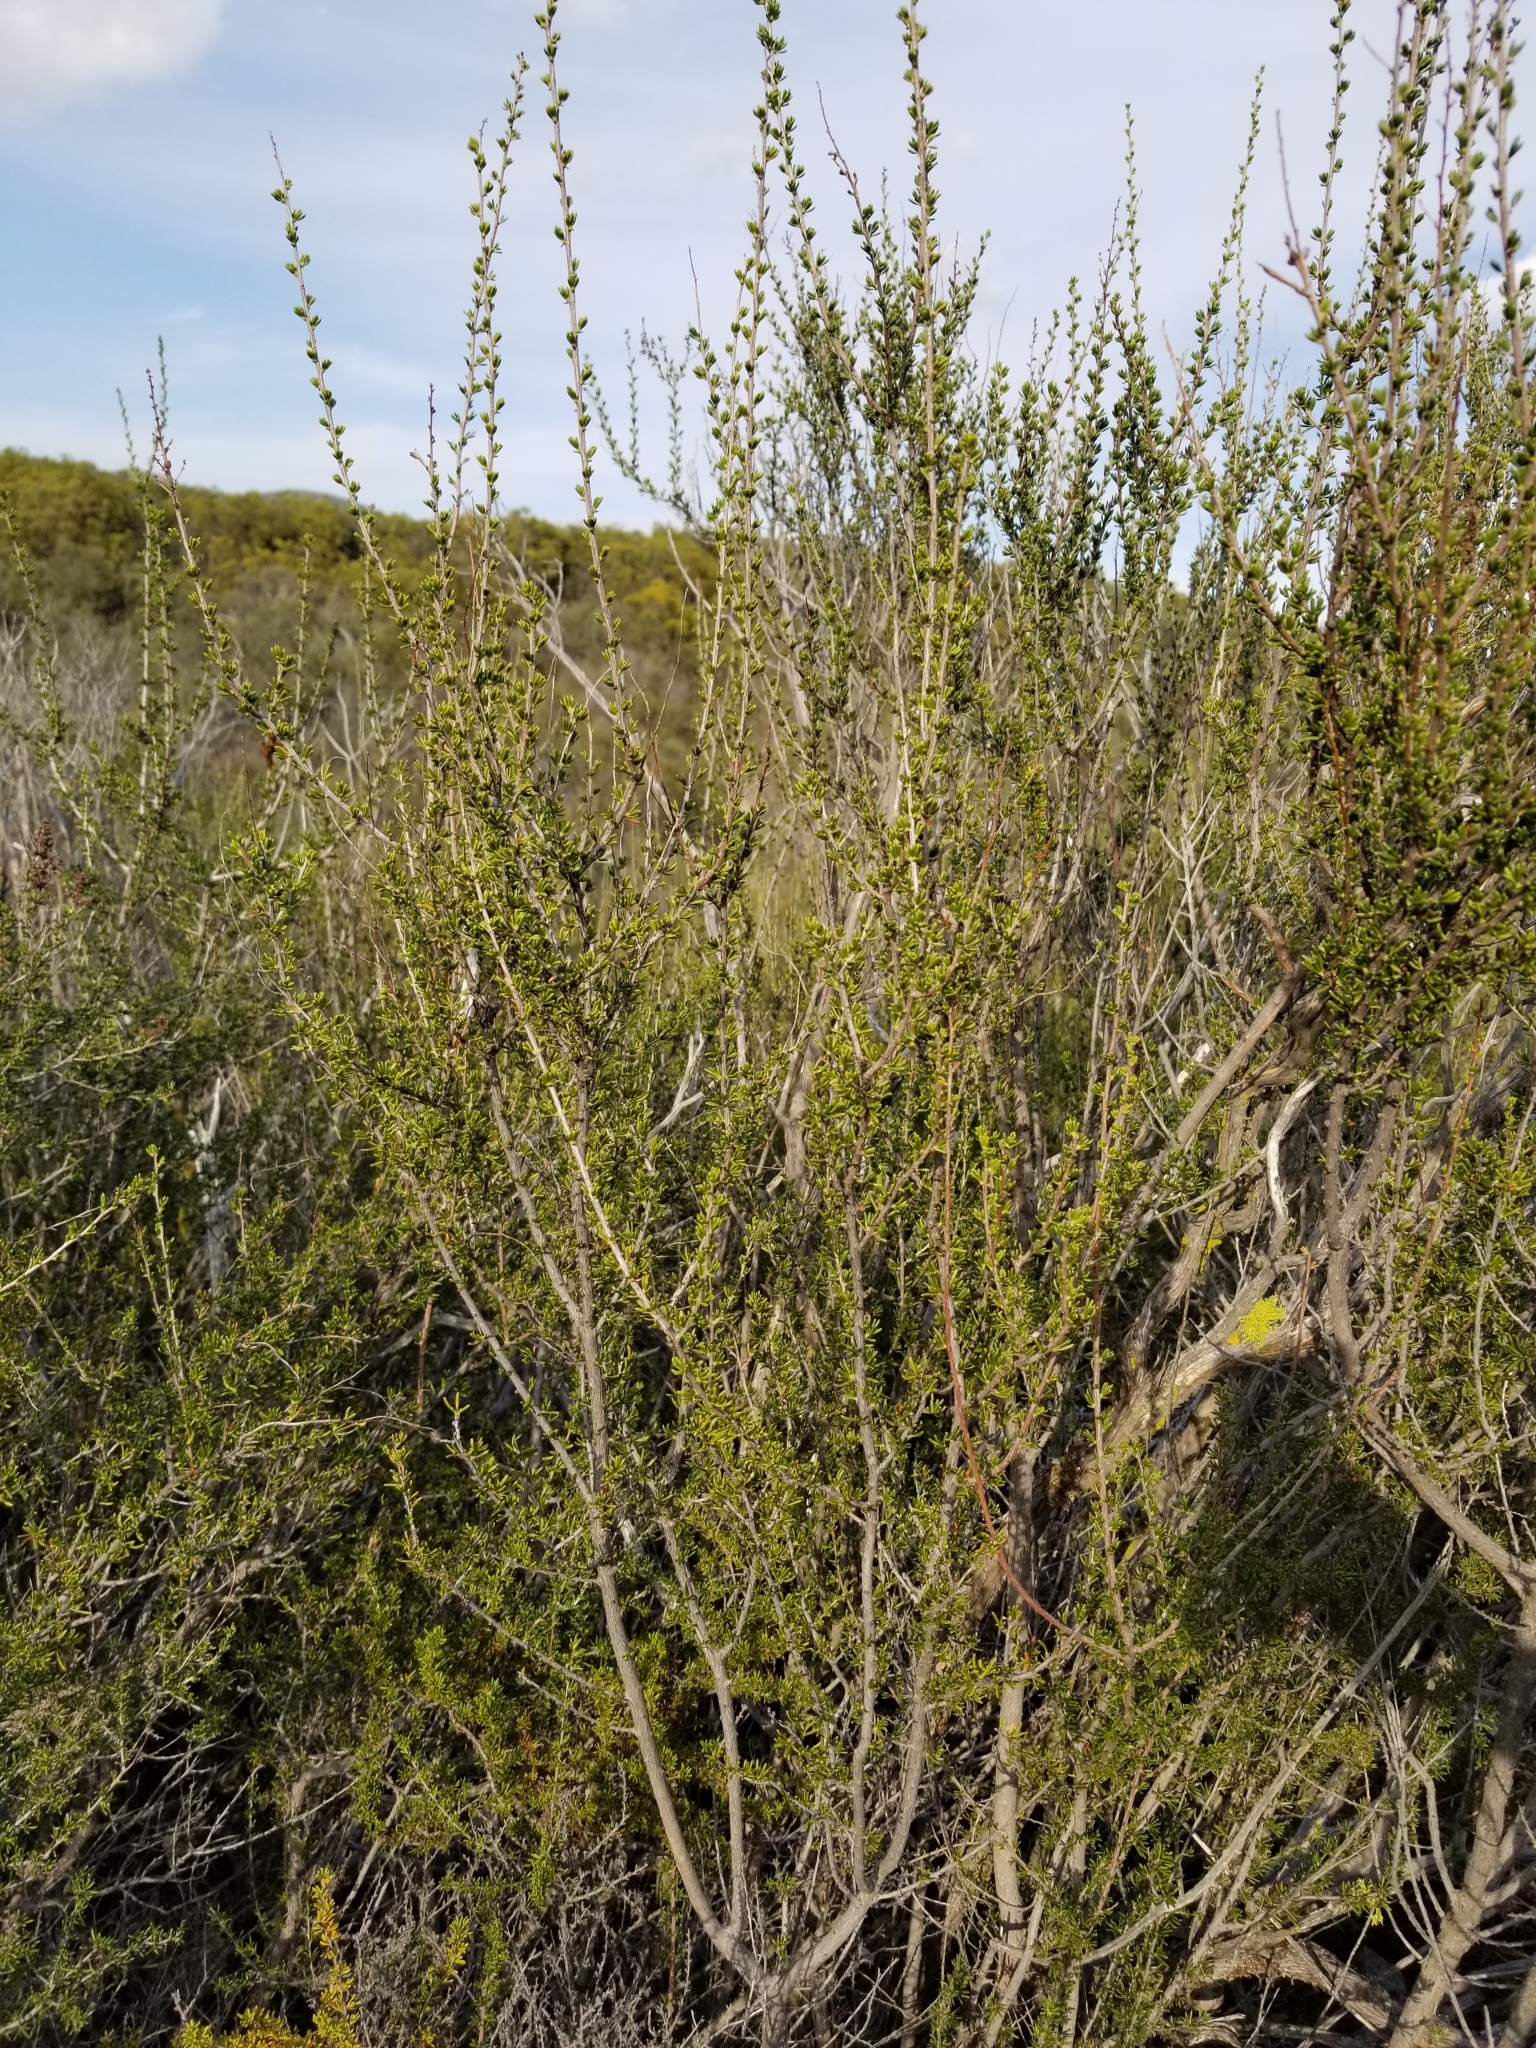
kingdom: Plantae
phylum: Tracheophyta
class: Magnoliopsida
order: Rosales
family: Rosaceae
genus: Adenostoma
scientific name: Adenostoma fasciculatum
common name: Chamise
